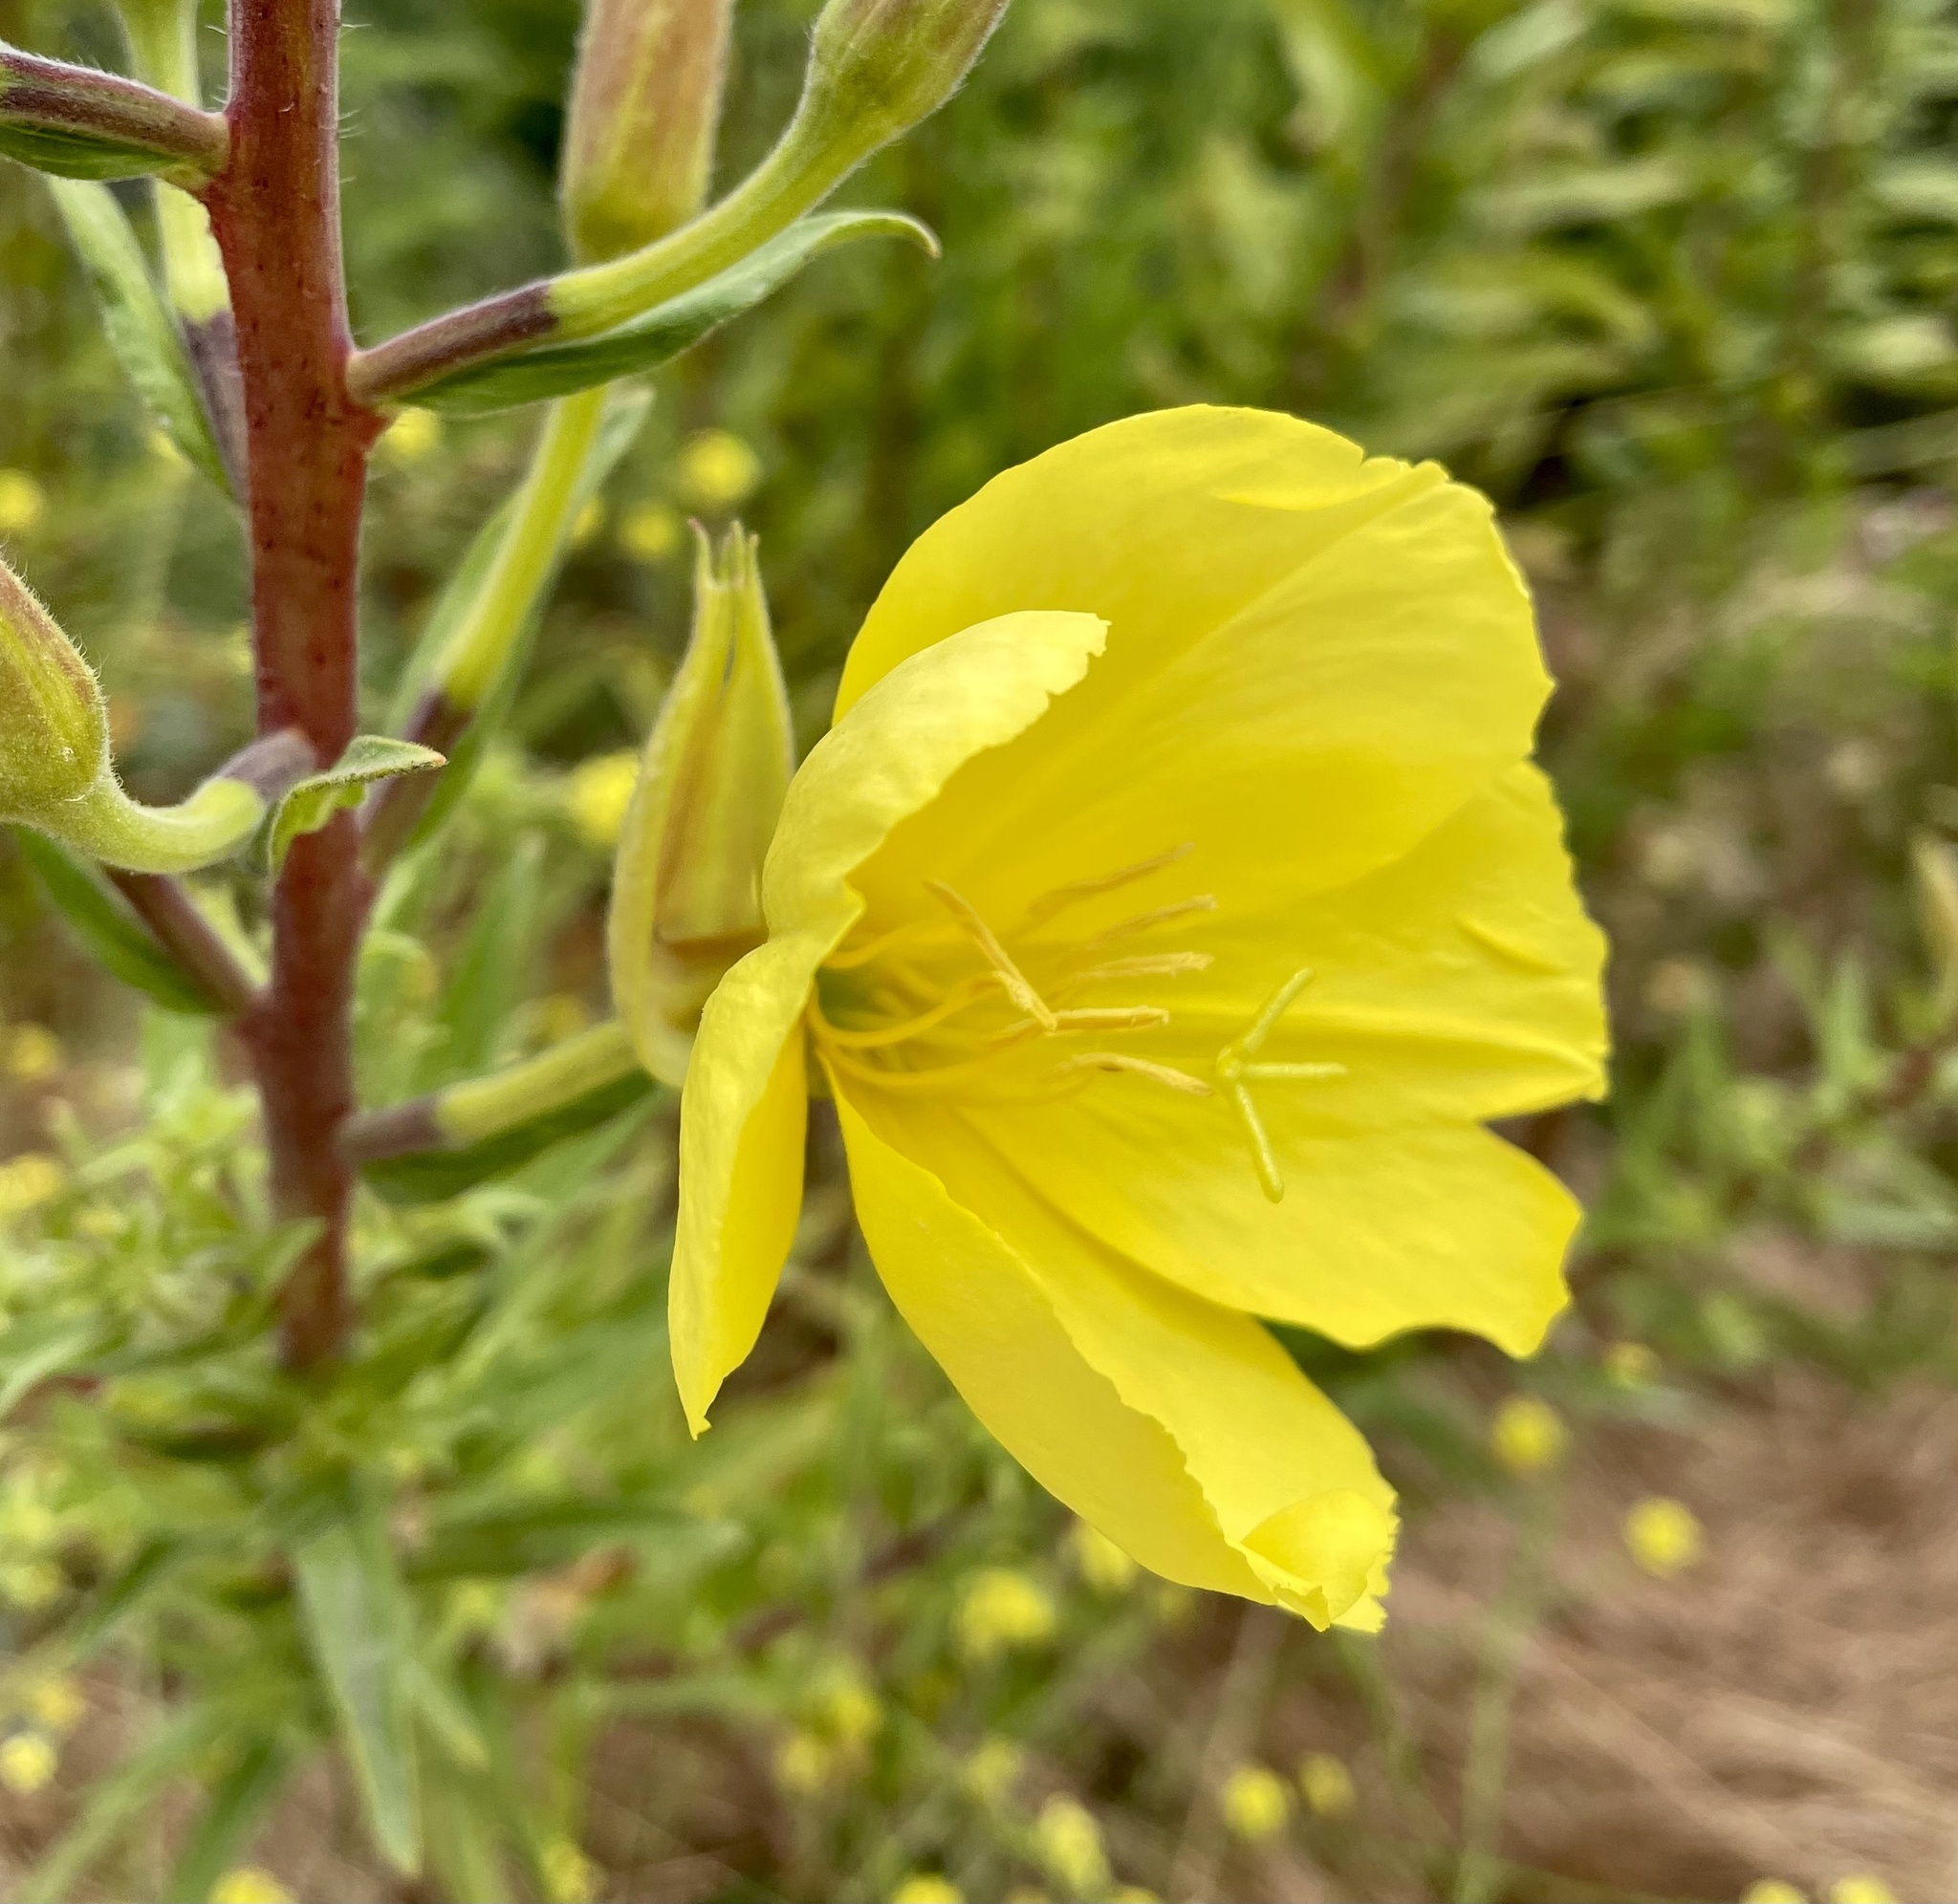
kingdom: Plantae
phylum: Tracheophyta
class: Magnoliopsida
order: Myrtales
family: Onagraceae
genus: Oenothera
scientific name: Oenothera elata
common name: Hooker's evening-primrose
